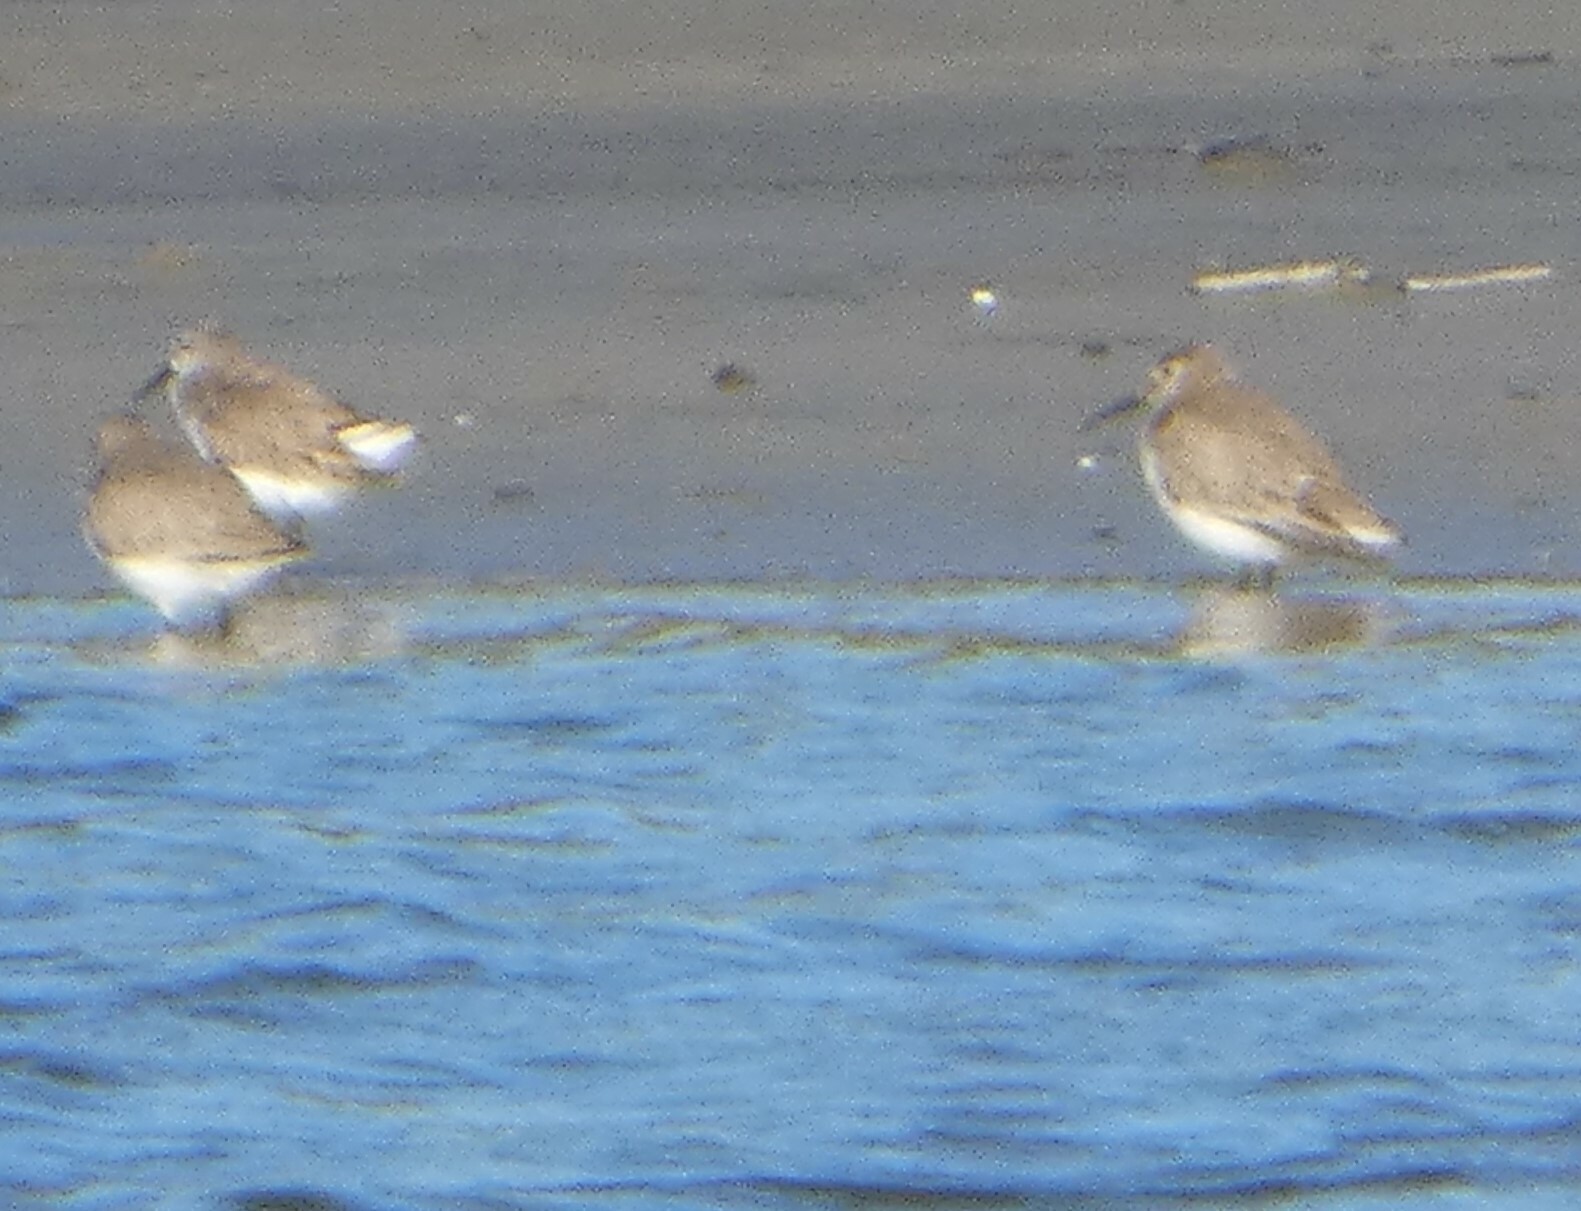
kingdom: Animalia
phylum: Chordata
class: Aves
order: Charadriiformes
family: Scolopacidae
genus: Calidris
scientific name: Calidris alpina
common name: Dunlin
